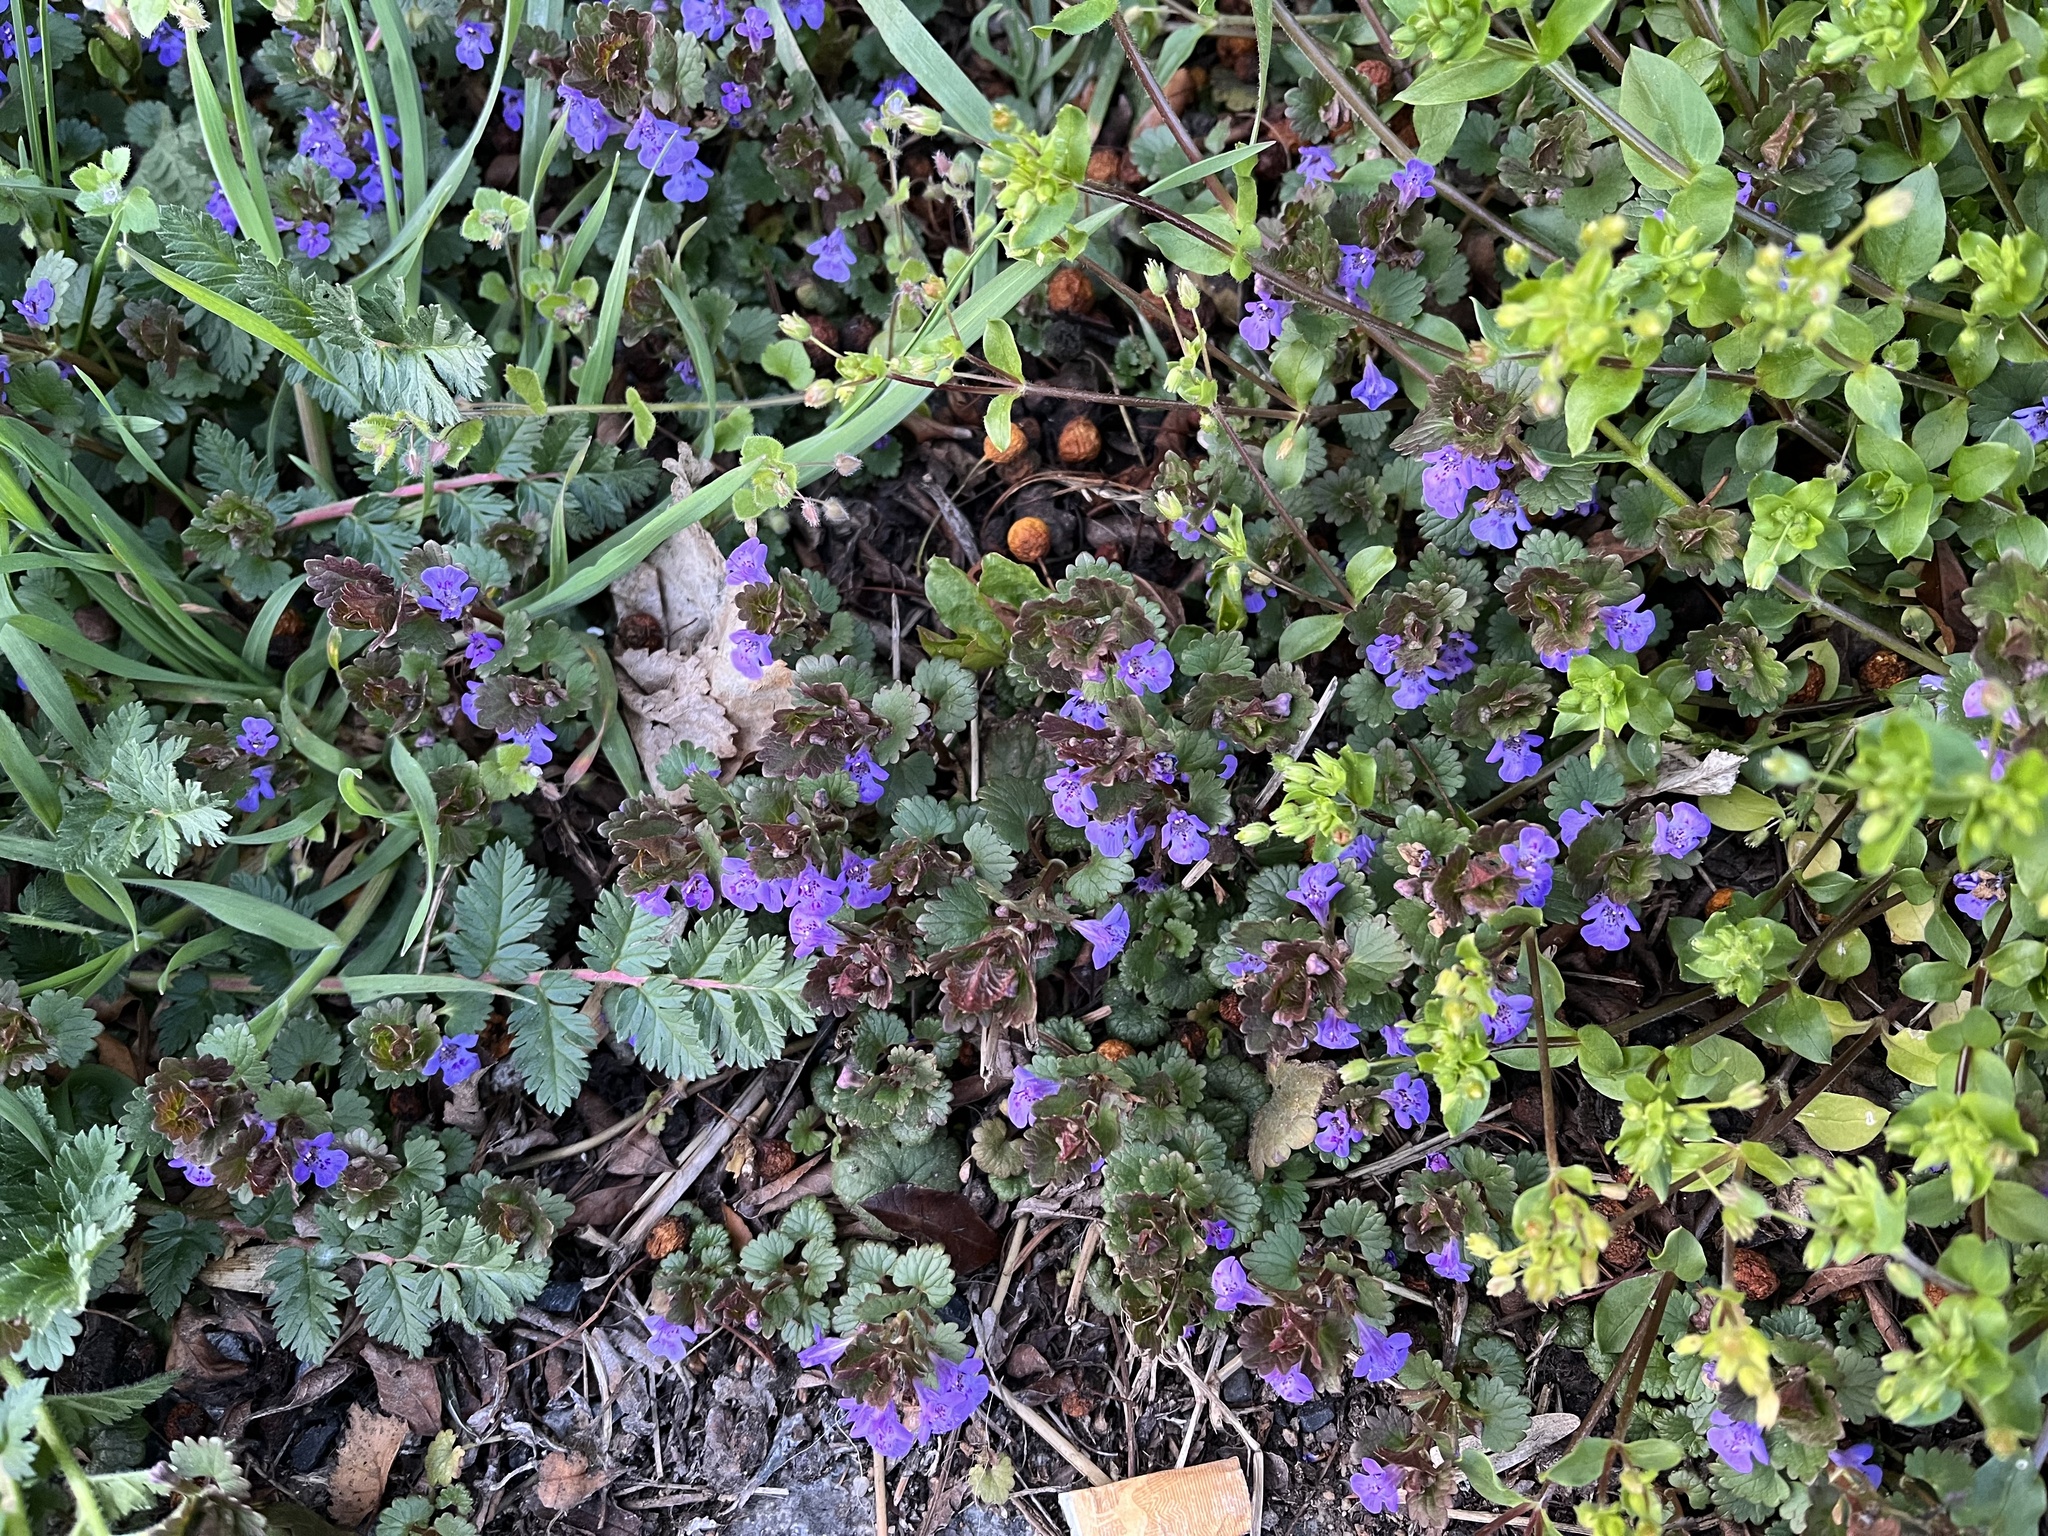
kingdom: Plantae
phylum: Tracheophyta
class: Magnoliopsida
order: Lamiales
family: Lamiaceae
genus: Glechoma
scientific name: Glechoma hederacea
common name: Ground ivy
